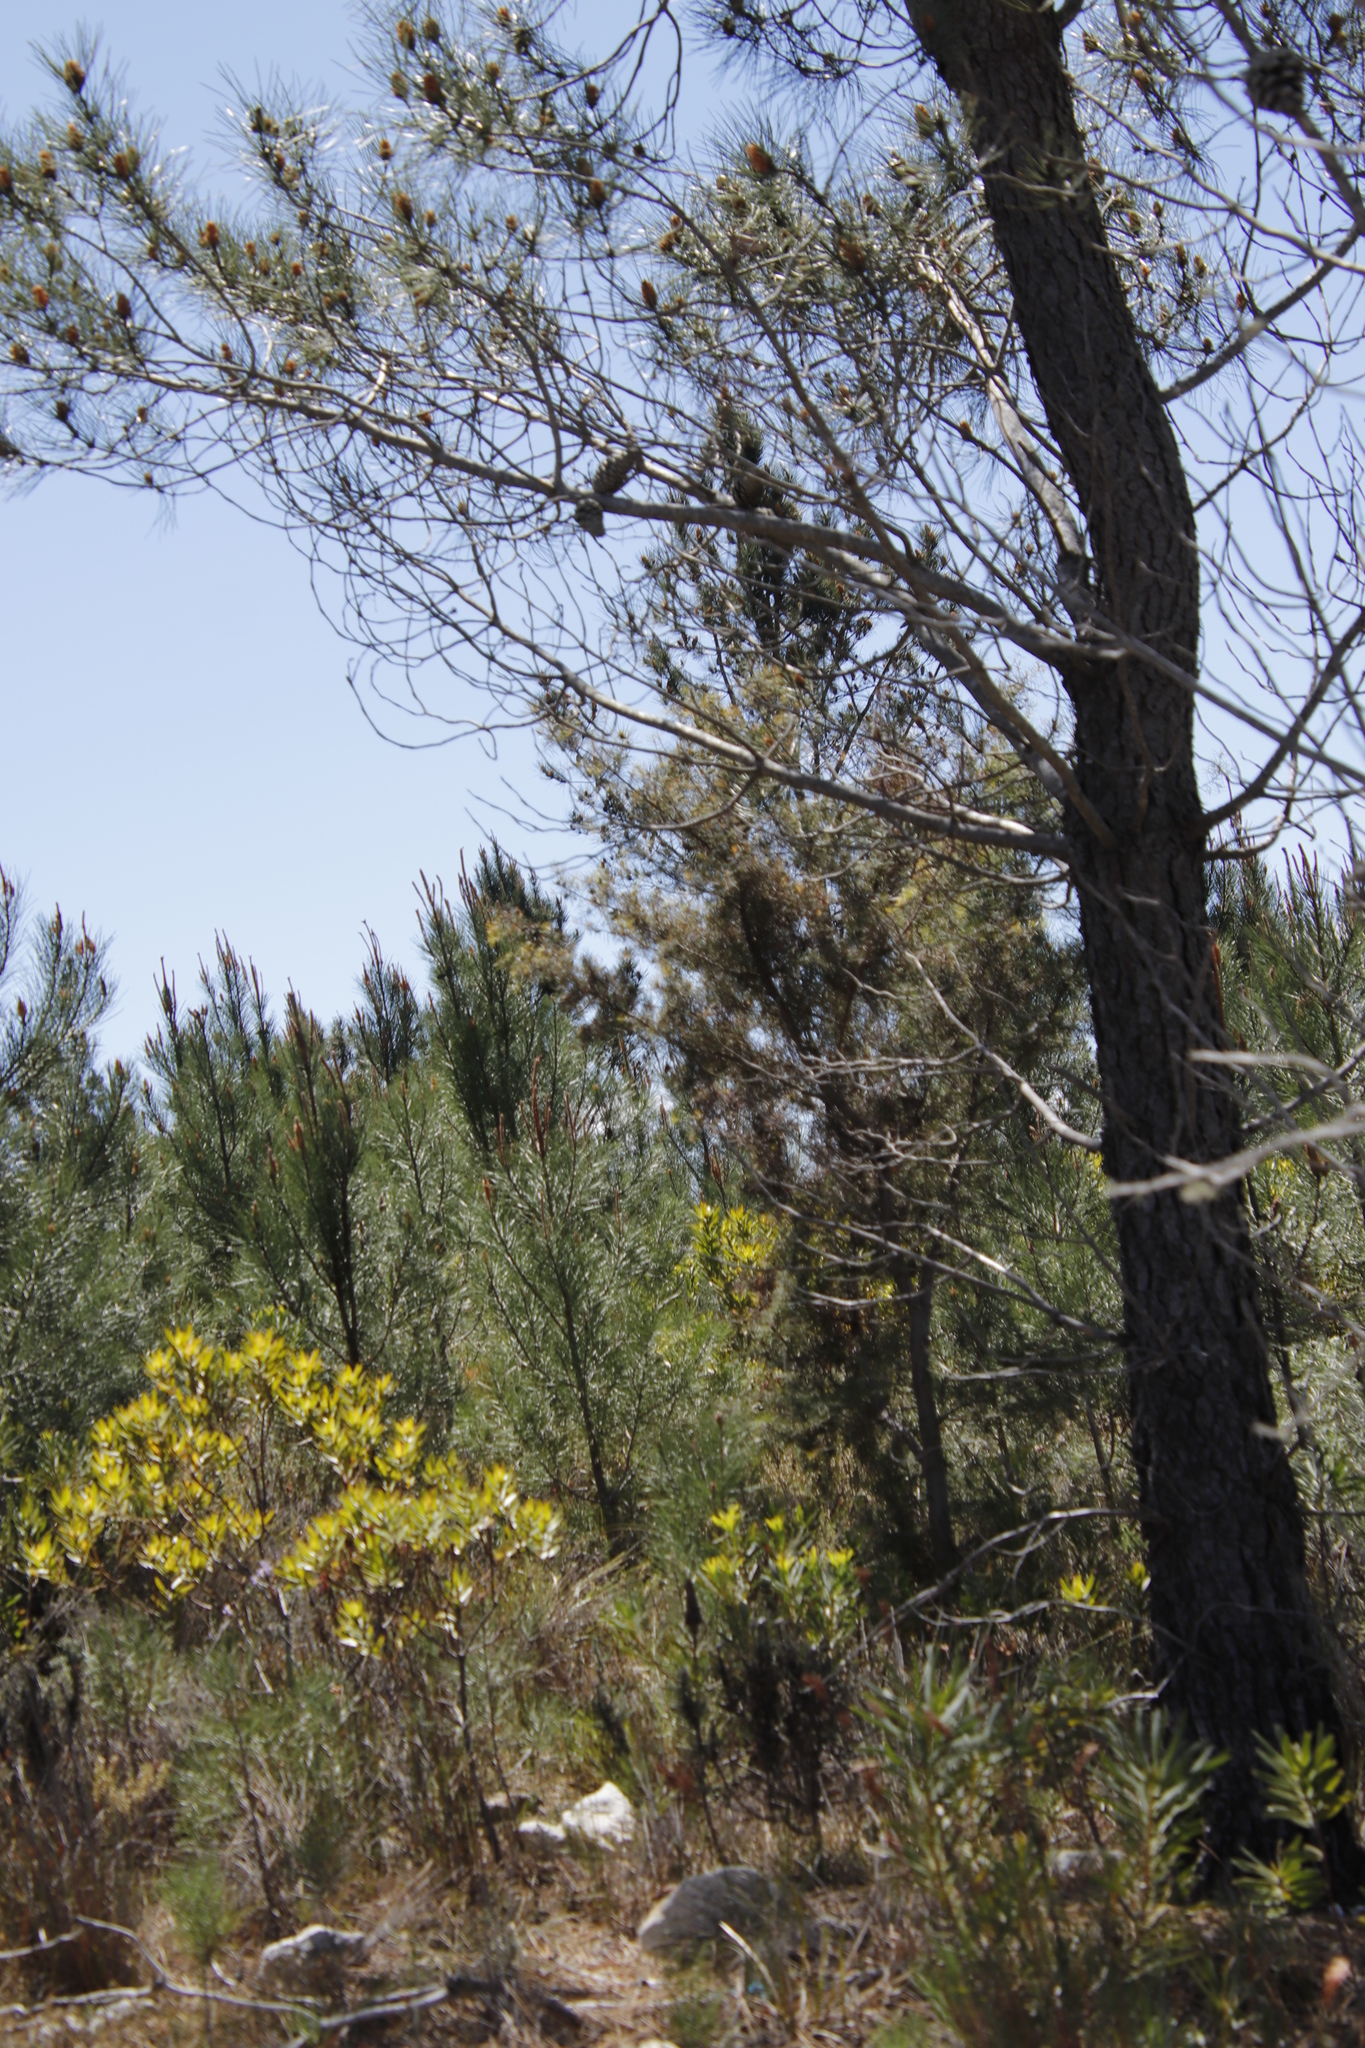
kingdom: Plantae
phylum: Tracheophyta
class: Magnoliopsida
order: Proteales
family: Proteaceae
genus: Hakea
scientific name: Hakea sericea
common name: Needle bush
